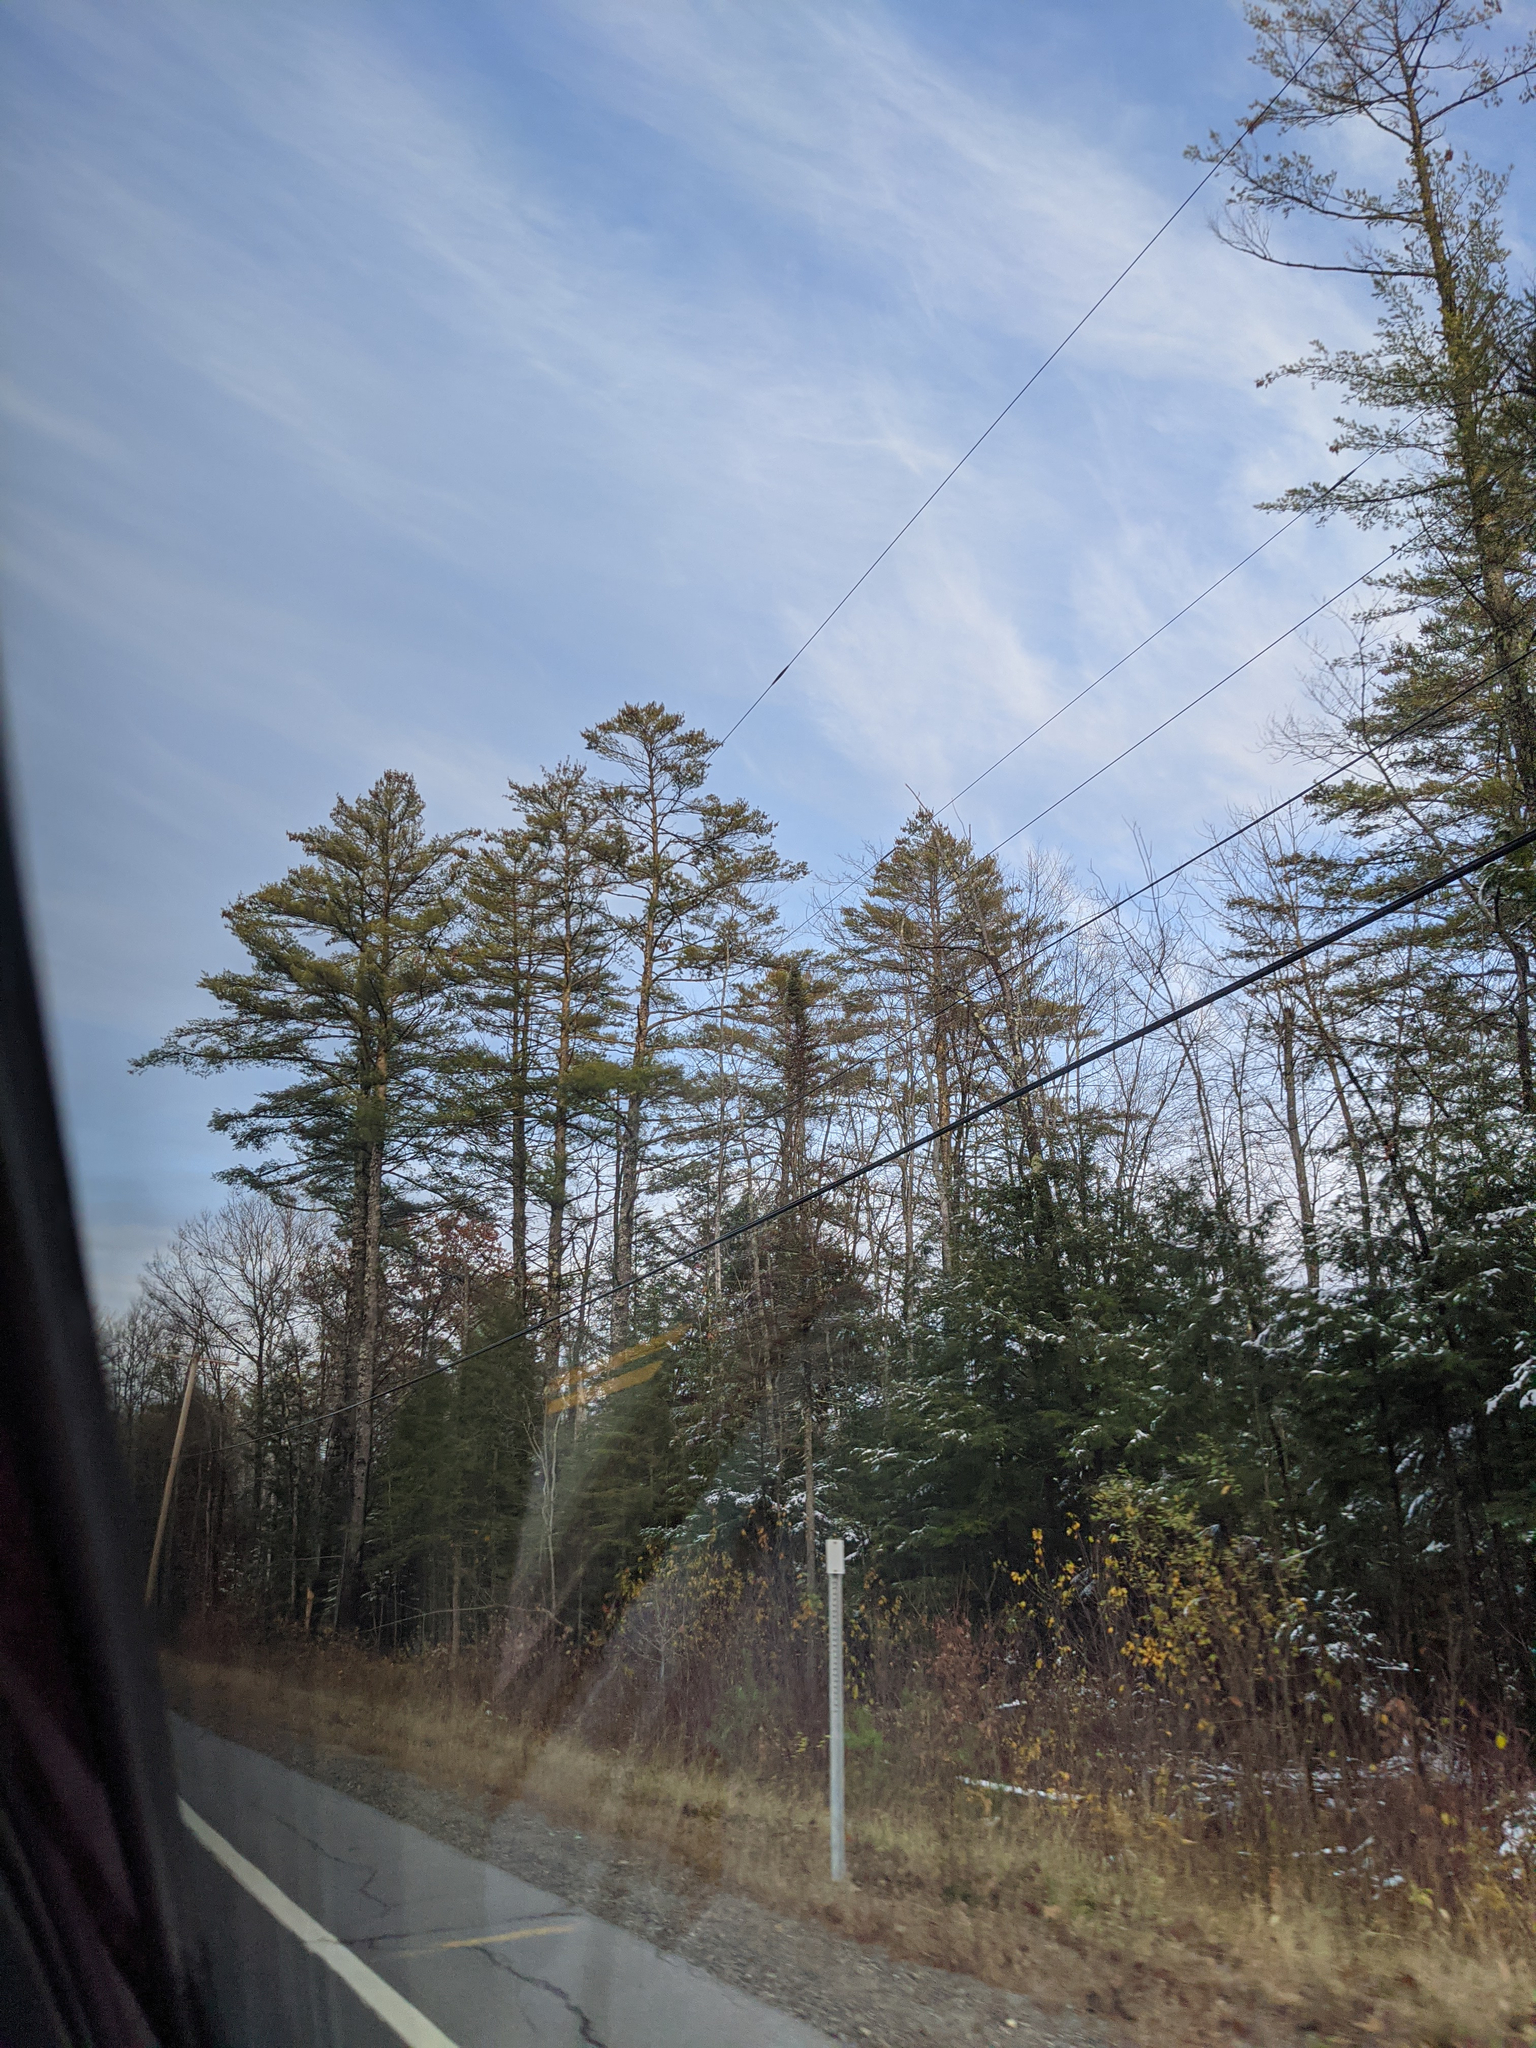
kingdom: Plantae
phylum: Tracheophyta
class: Pinopsida
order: Pinales
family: Pinaceae
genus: Pinus
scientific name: Pinus strobus
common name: Weymouth pine
